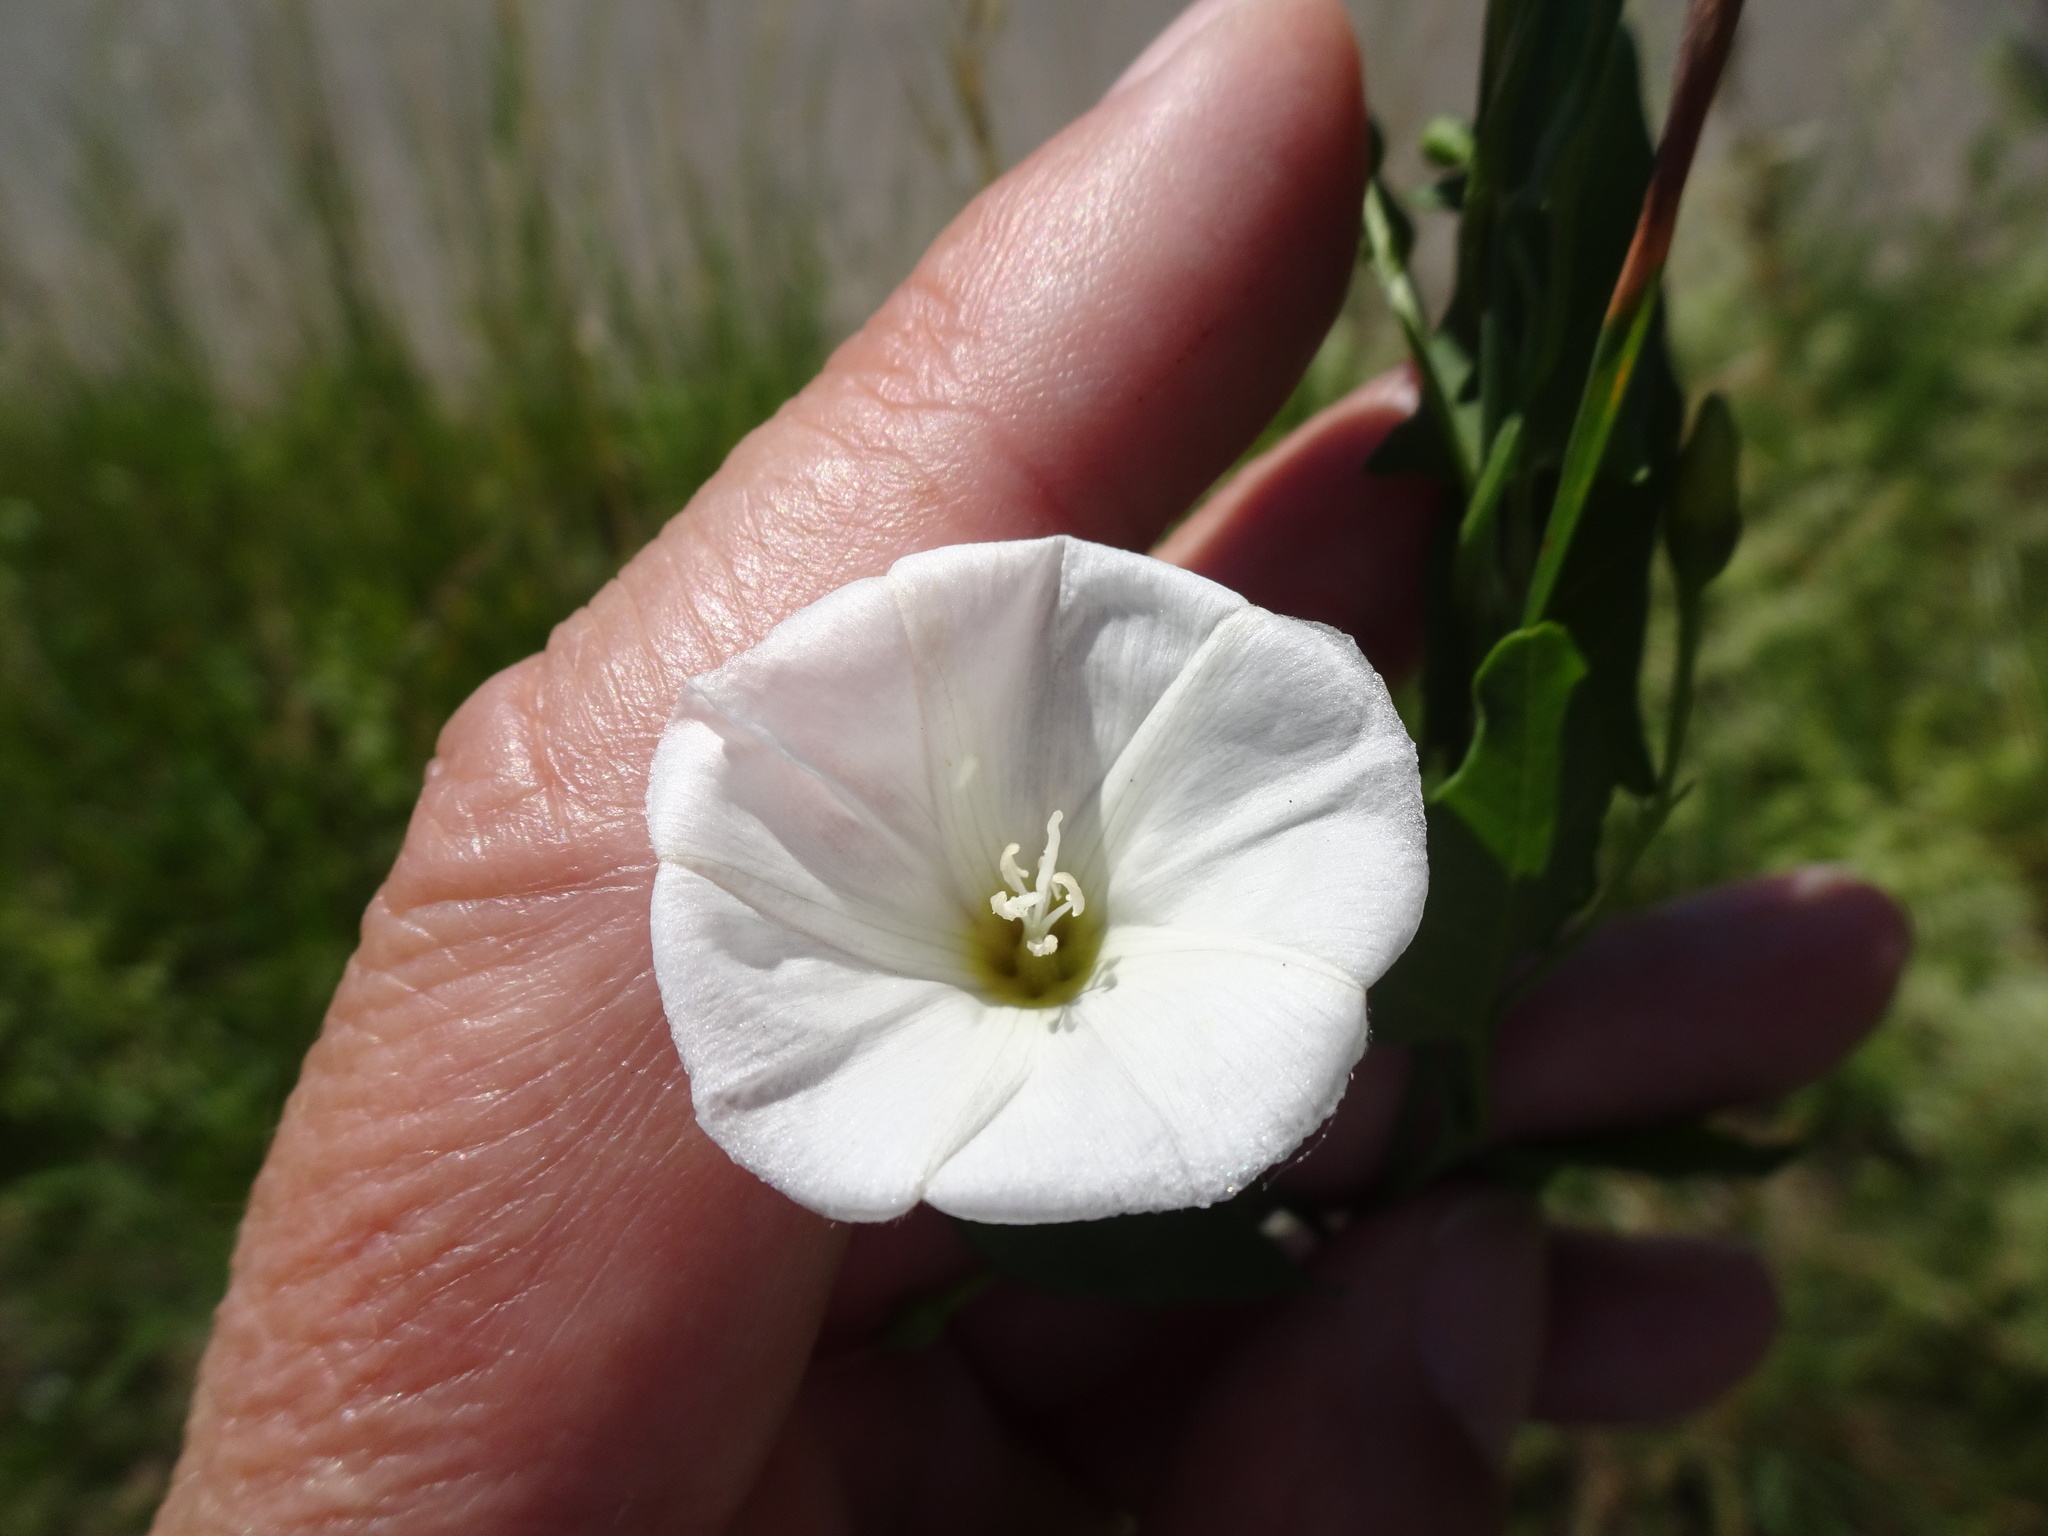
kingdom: Plantae
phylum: Tracheophyta
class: Magnoliopsida
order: Solanales
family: Convolvulaceae
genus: Convolvulus
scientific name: Convolvulus arvensis
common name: Field bindweed
